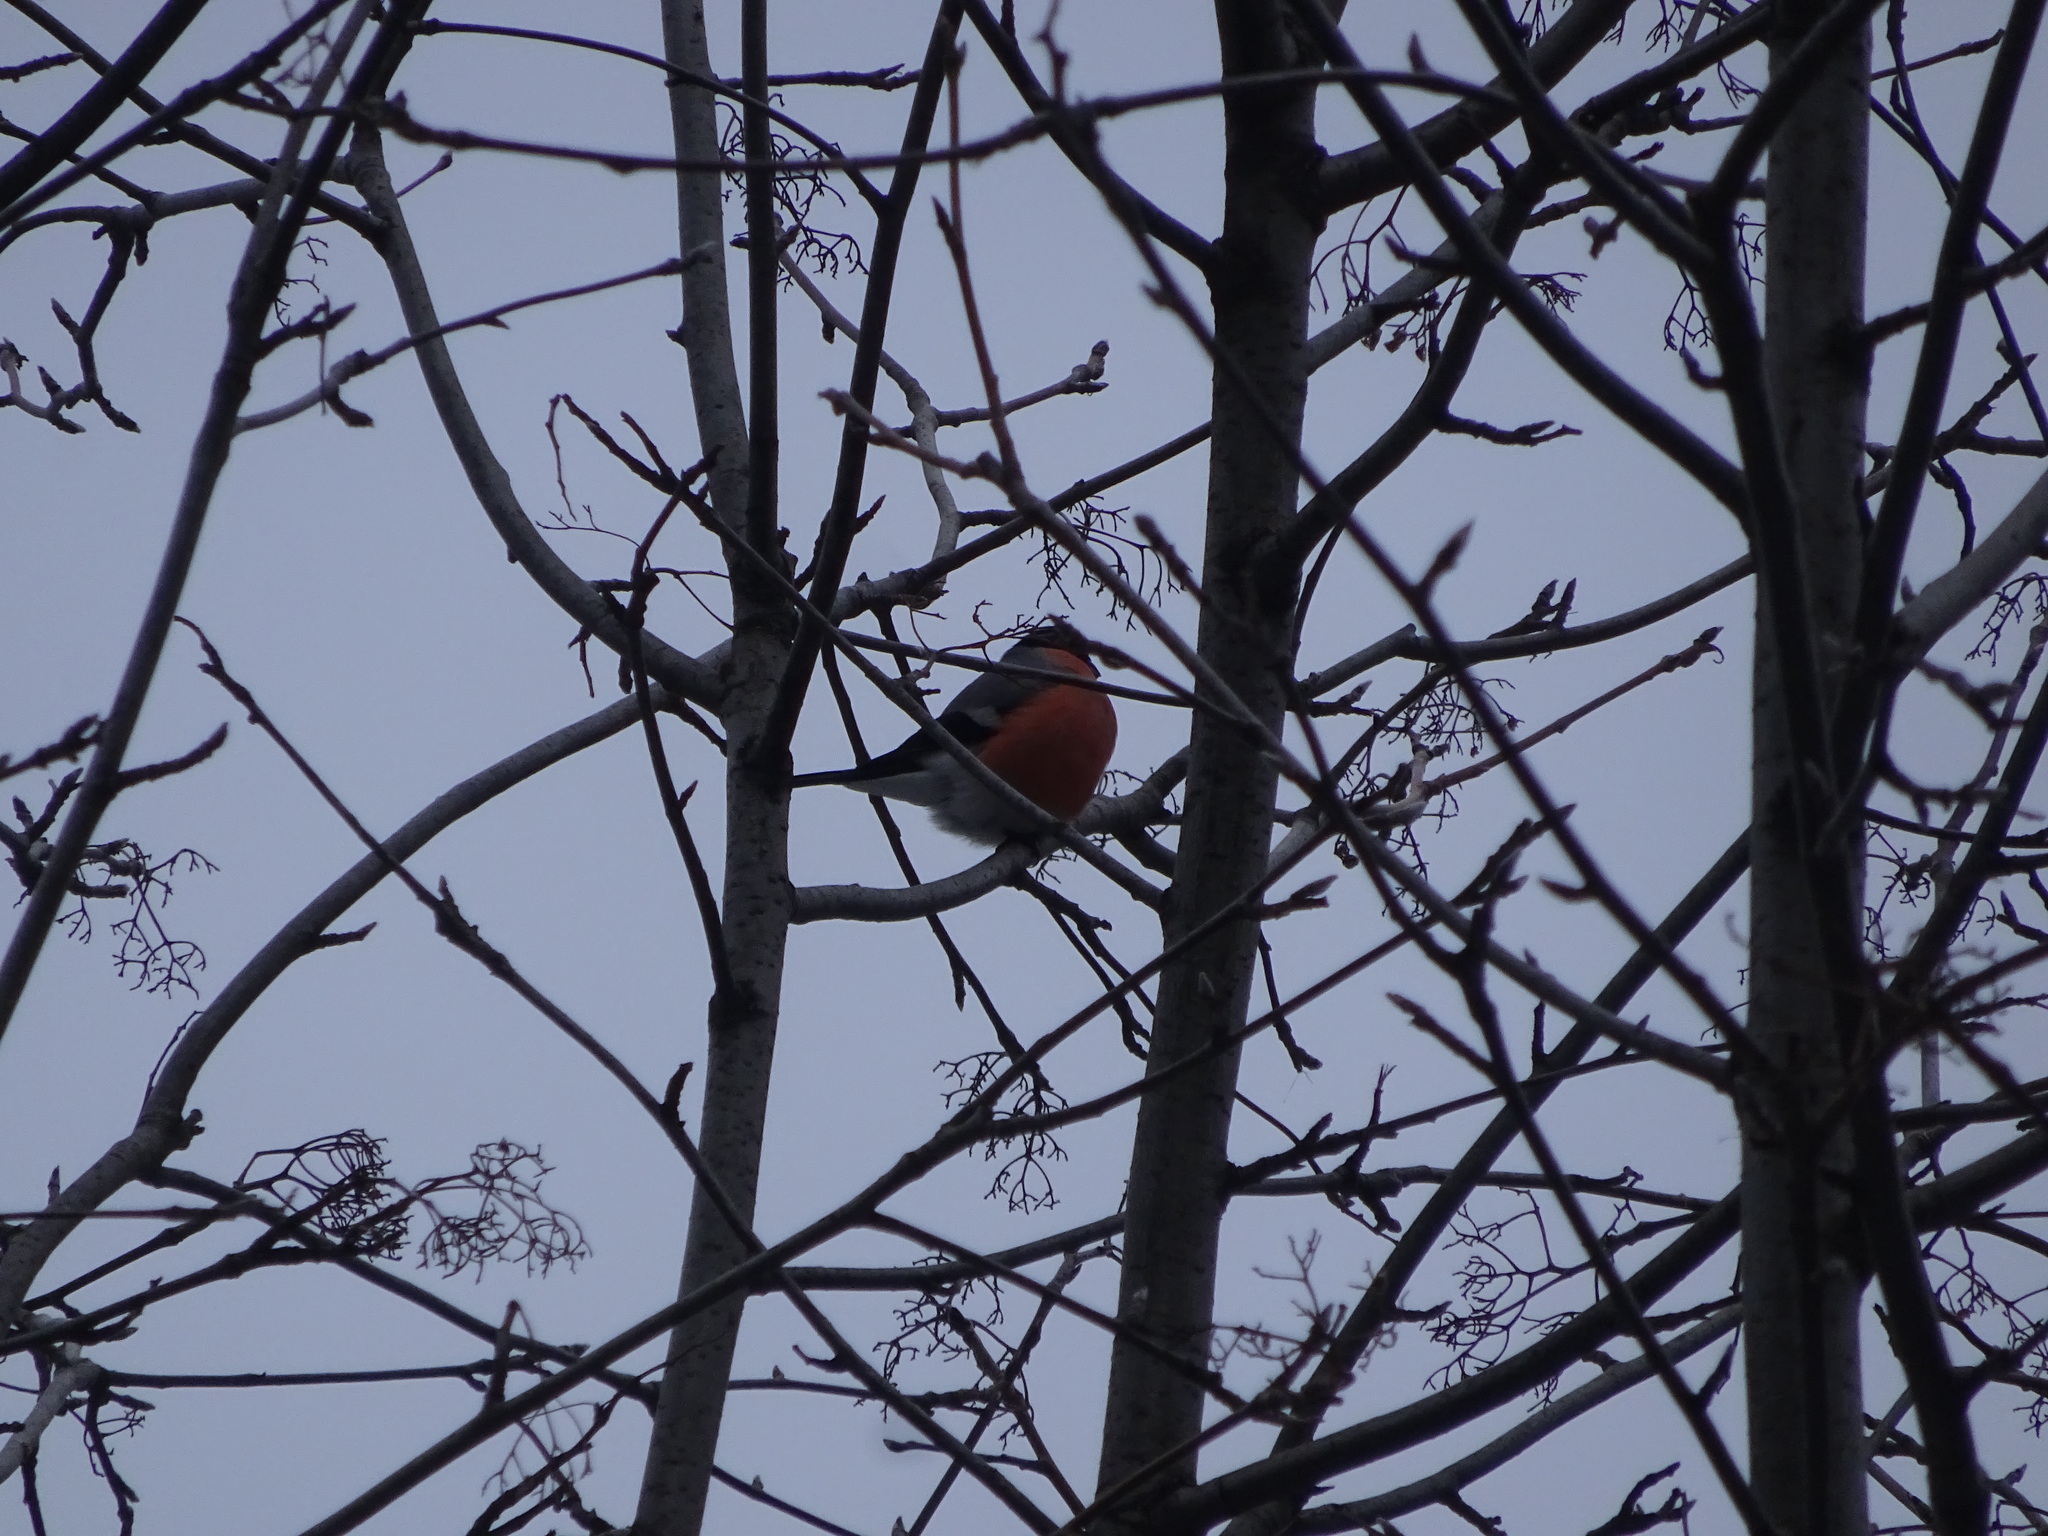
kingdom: Animalia
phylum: Chordata
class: Aves
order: Passeriformes
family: Fringillidae
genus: Pyrrhula
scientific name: Pyrrhula pyrrhula
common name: Eurasian bullfinch
